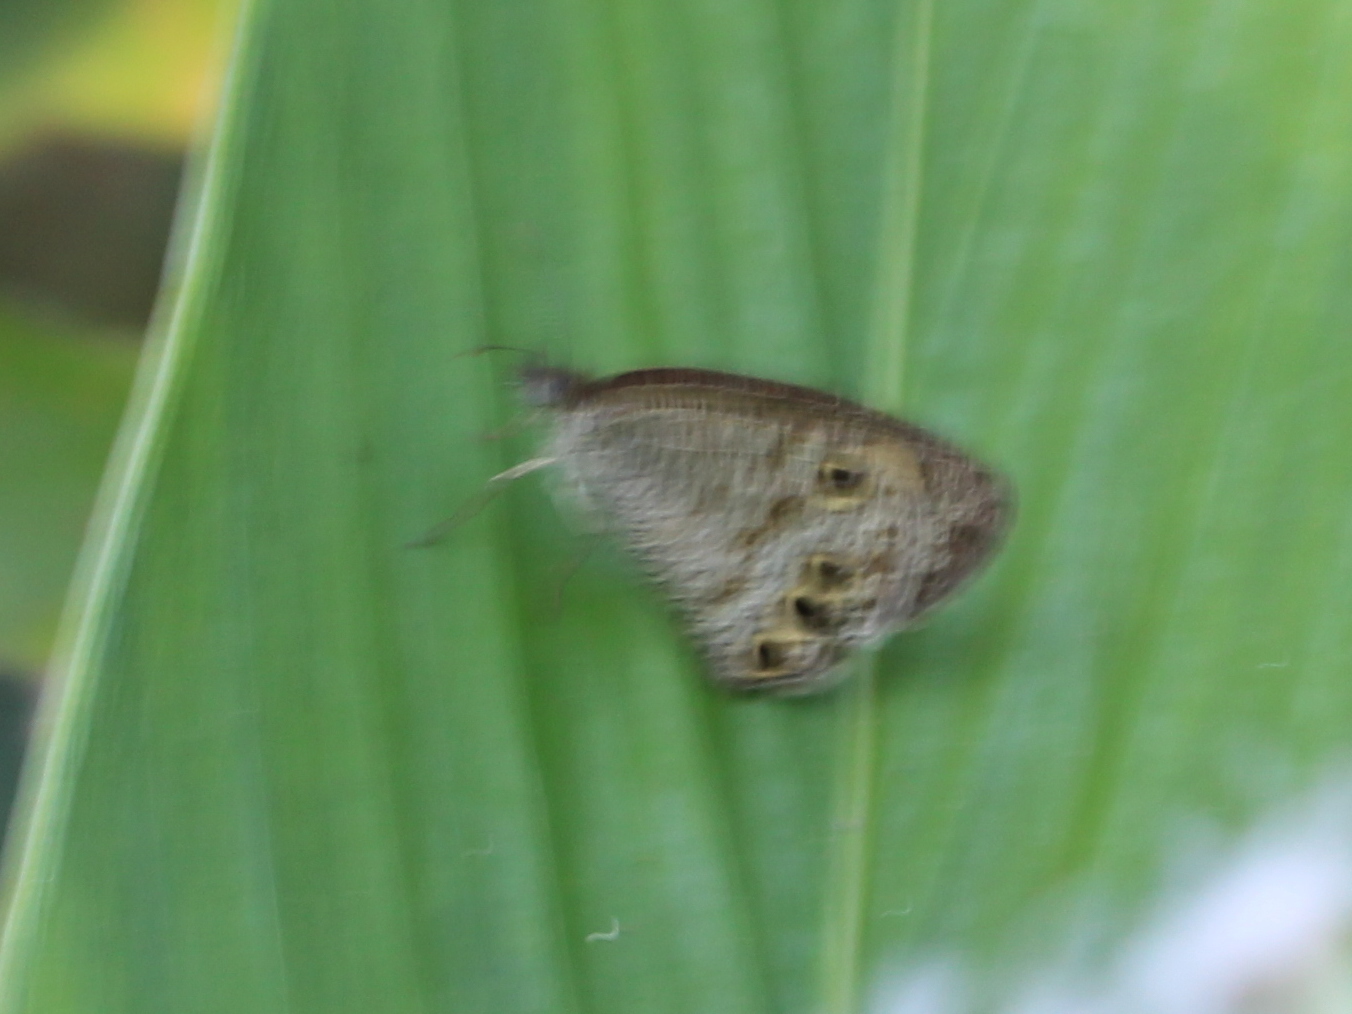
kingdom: Animalia
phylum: Arthropoda
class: Insecta
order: Lepidoptera
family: Nymphalidae
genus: Ypthima
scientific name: Ypthima huebneri
